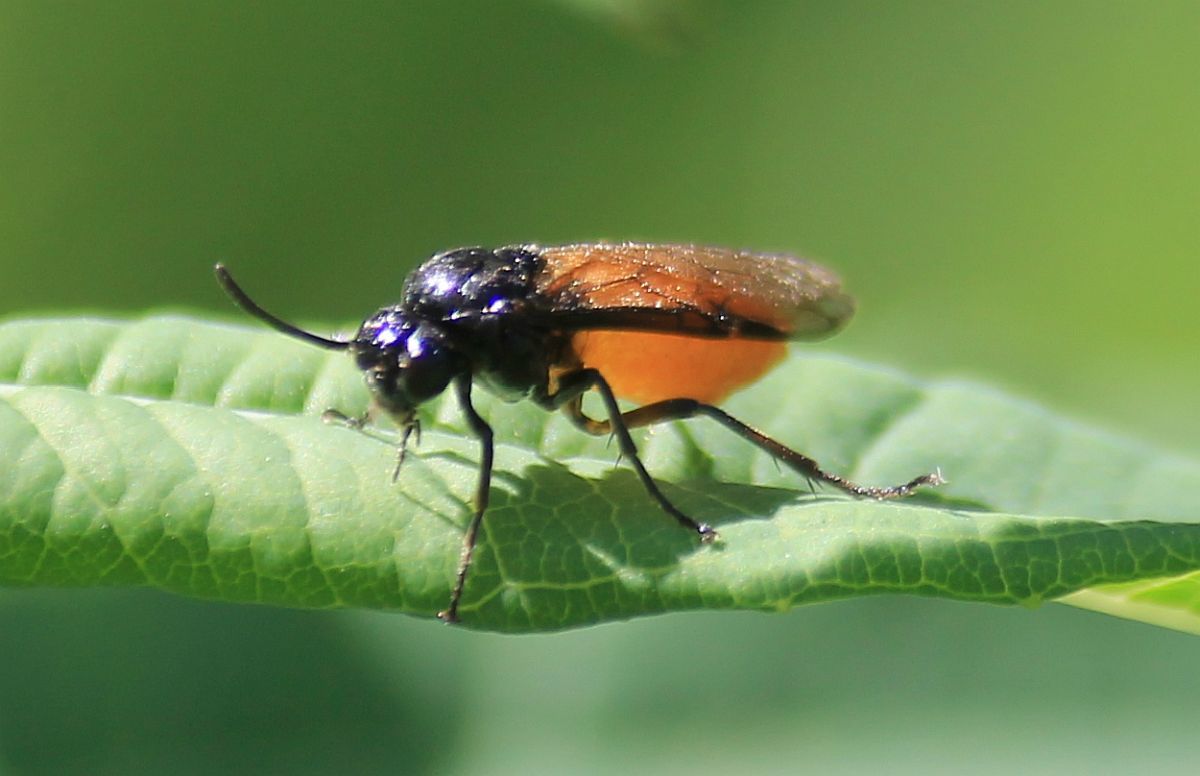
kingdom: Animalia
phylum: Arthropoda
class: Insecta
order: Hymenoptera
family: Argidae
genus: Arge
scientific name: Arge pagana
